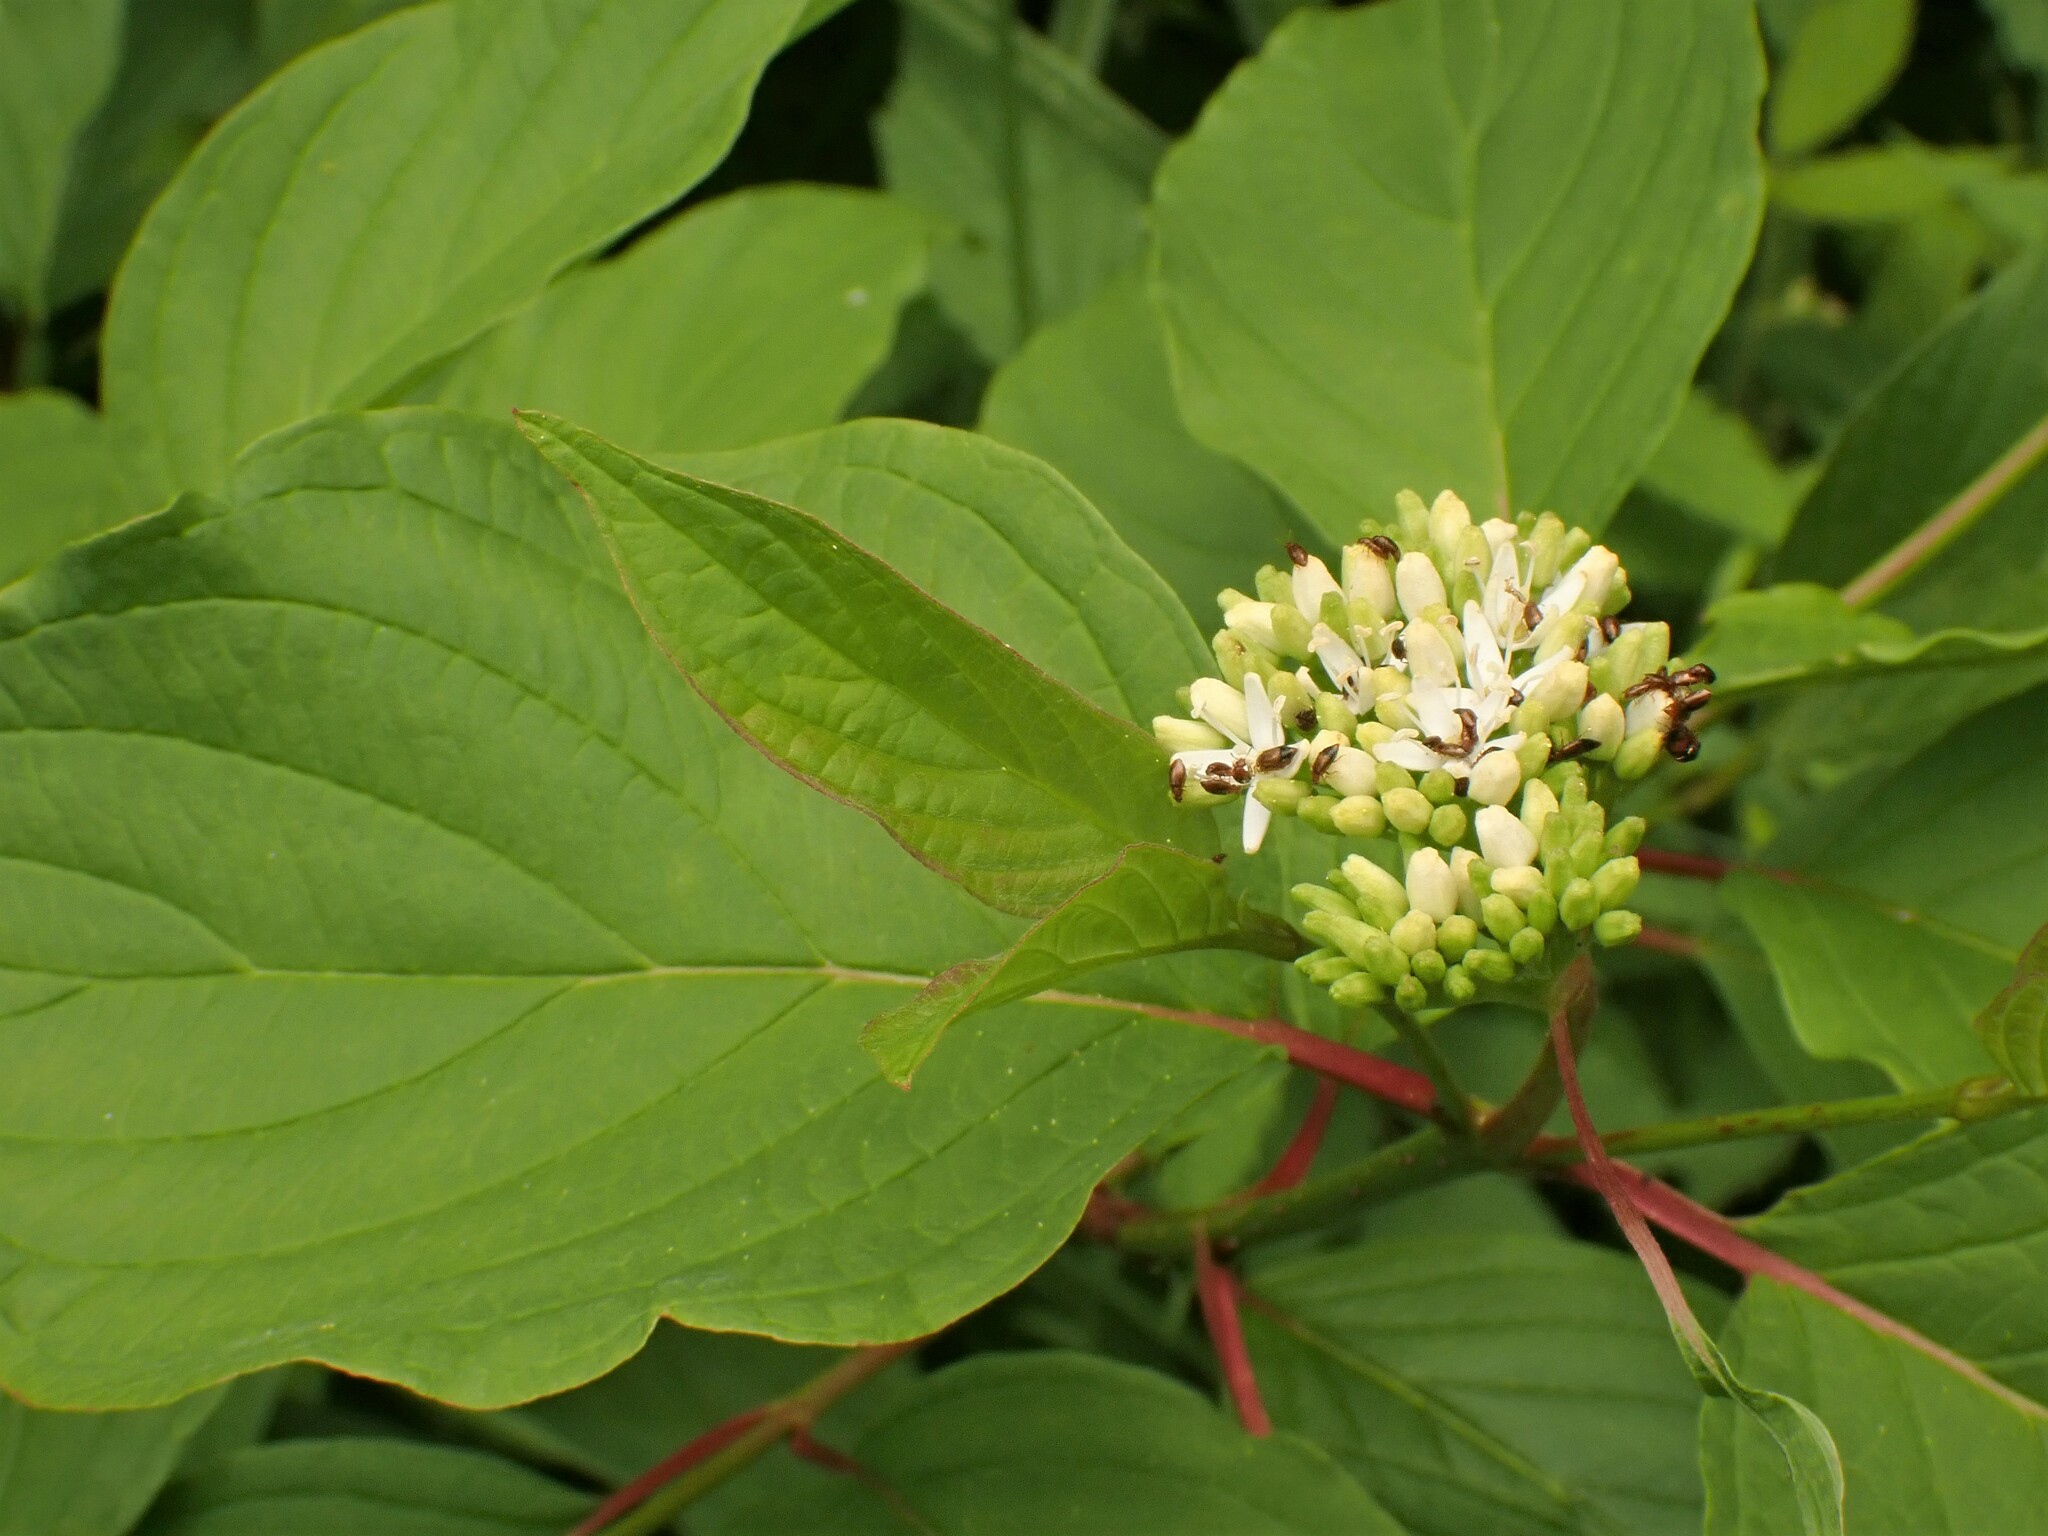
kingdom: Plantae
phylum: Tracheophyta
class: Magnoliopsida
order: Cornales
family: Cornaceae
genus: Cornus
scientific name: Cornus sericea
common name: Red-osier dogwood
